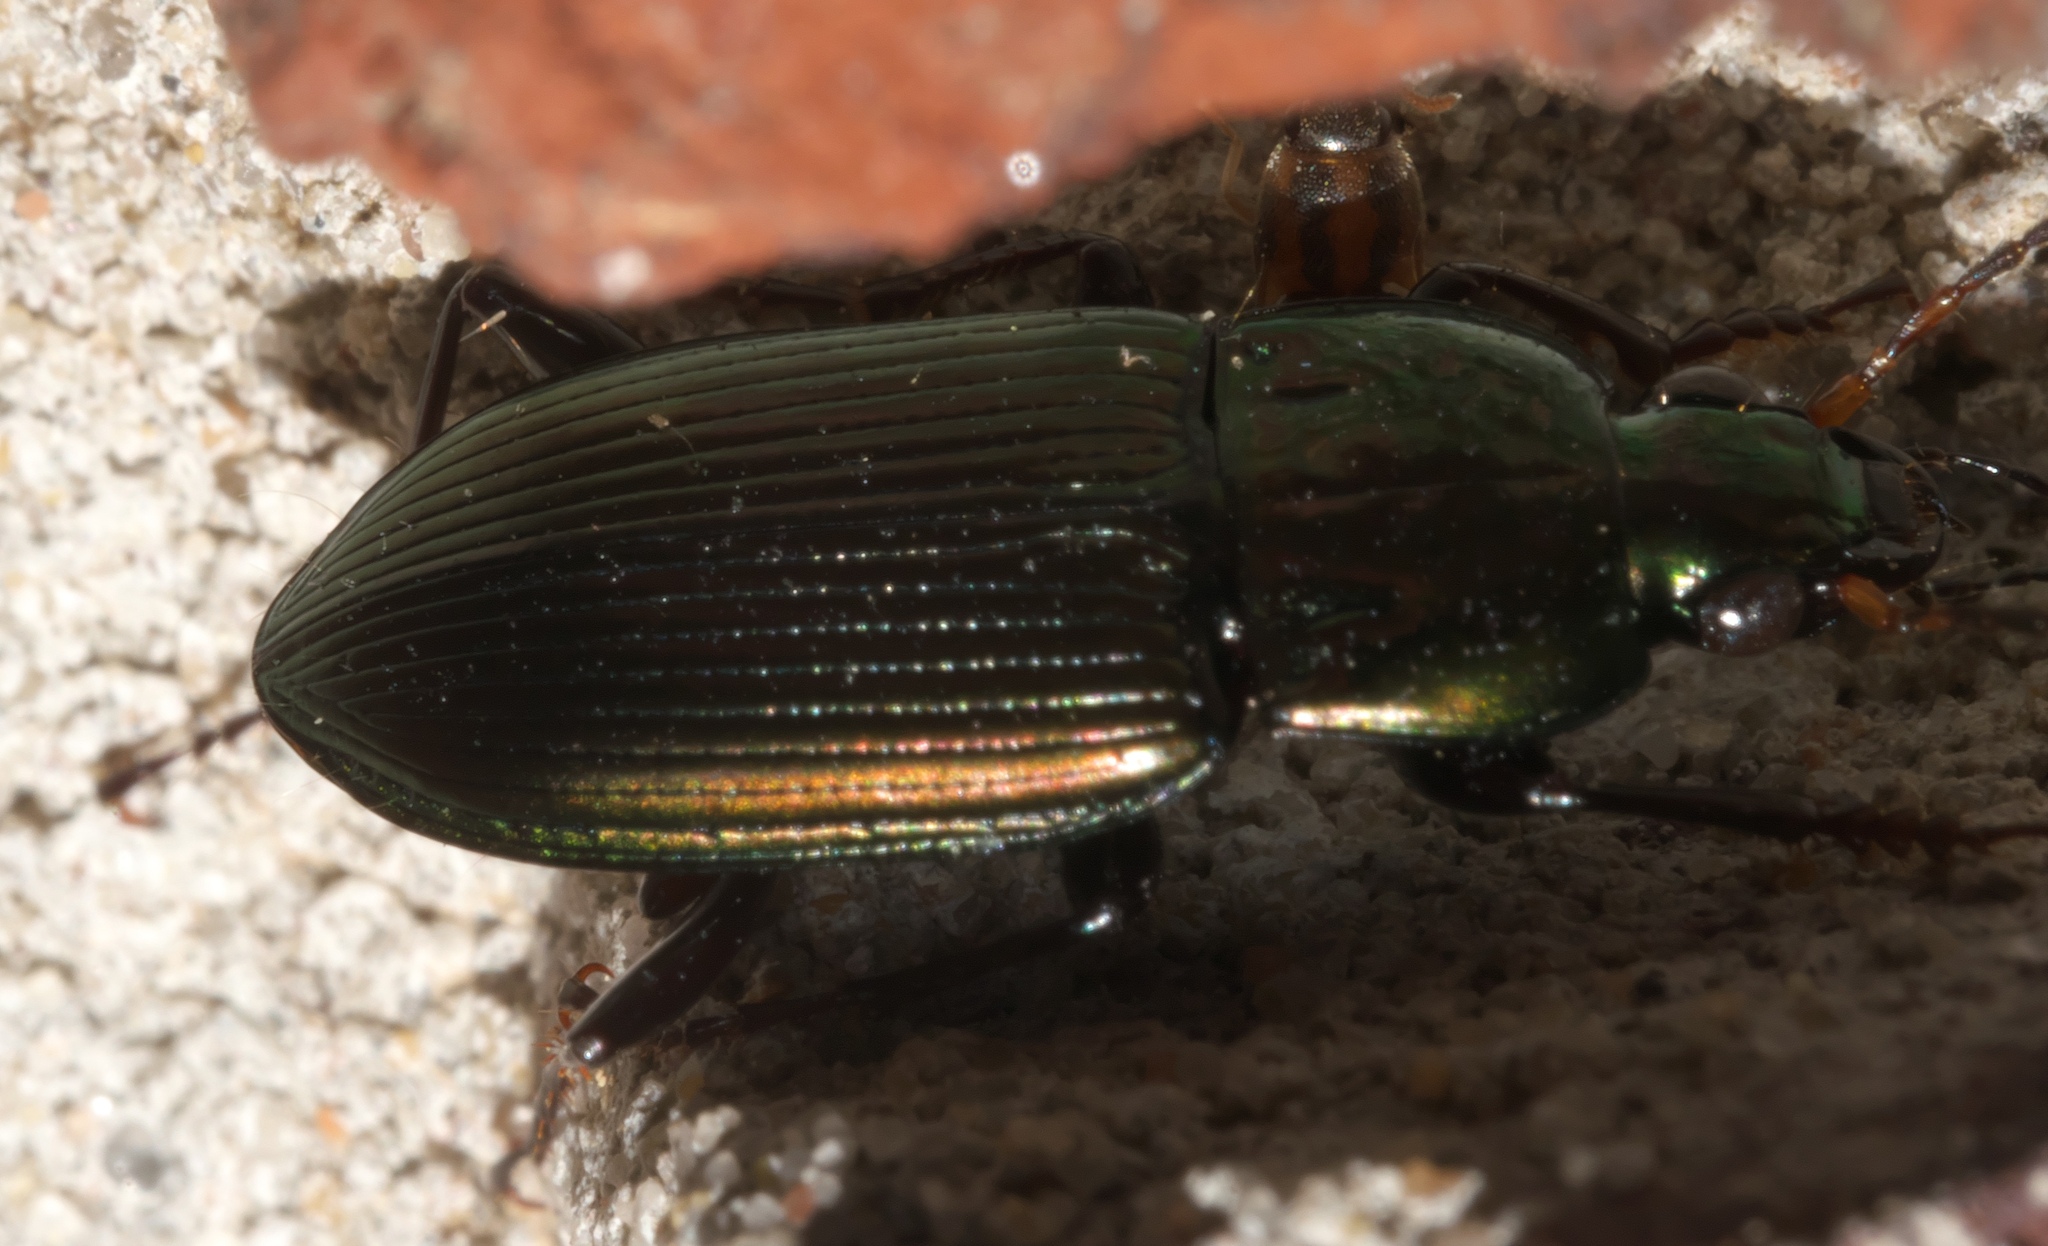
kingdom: Animalia
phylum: Arthropoda
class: Insecta
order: Coleoptera
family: Carabidae
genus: Poecilus
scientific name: Poecilus chalcites
